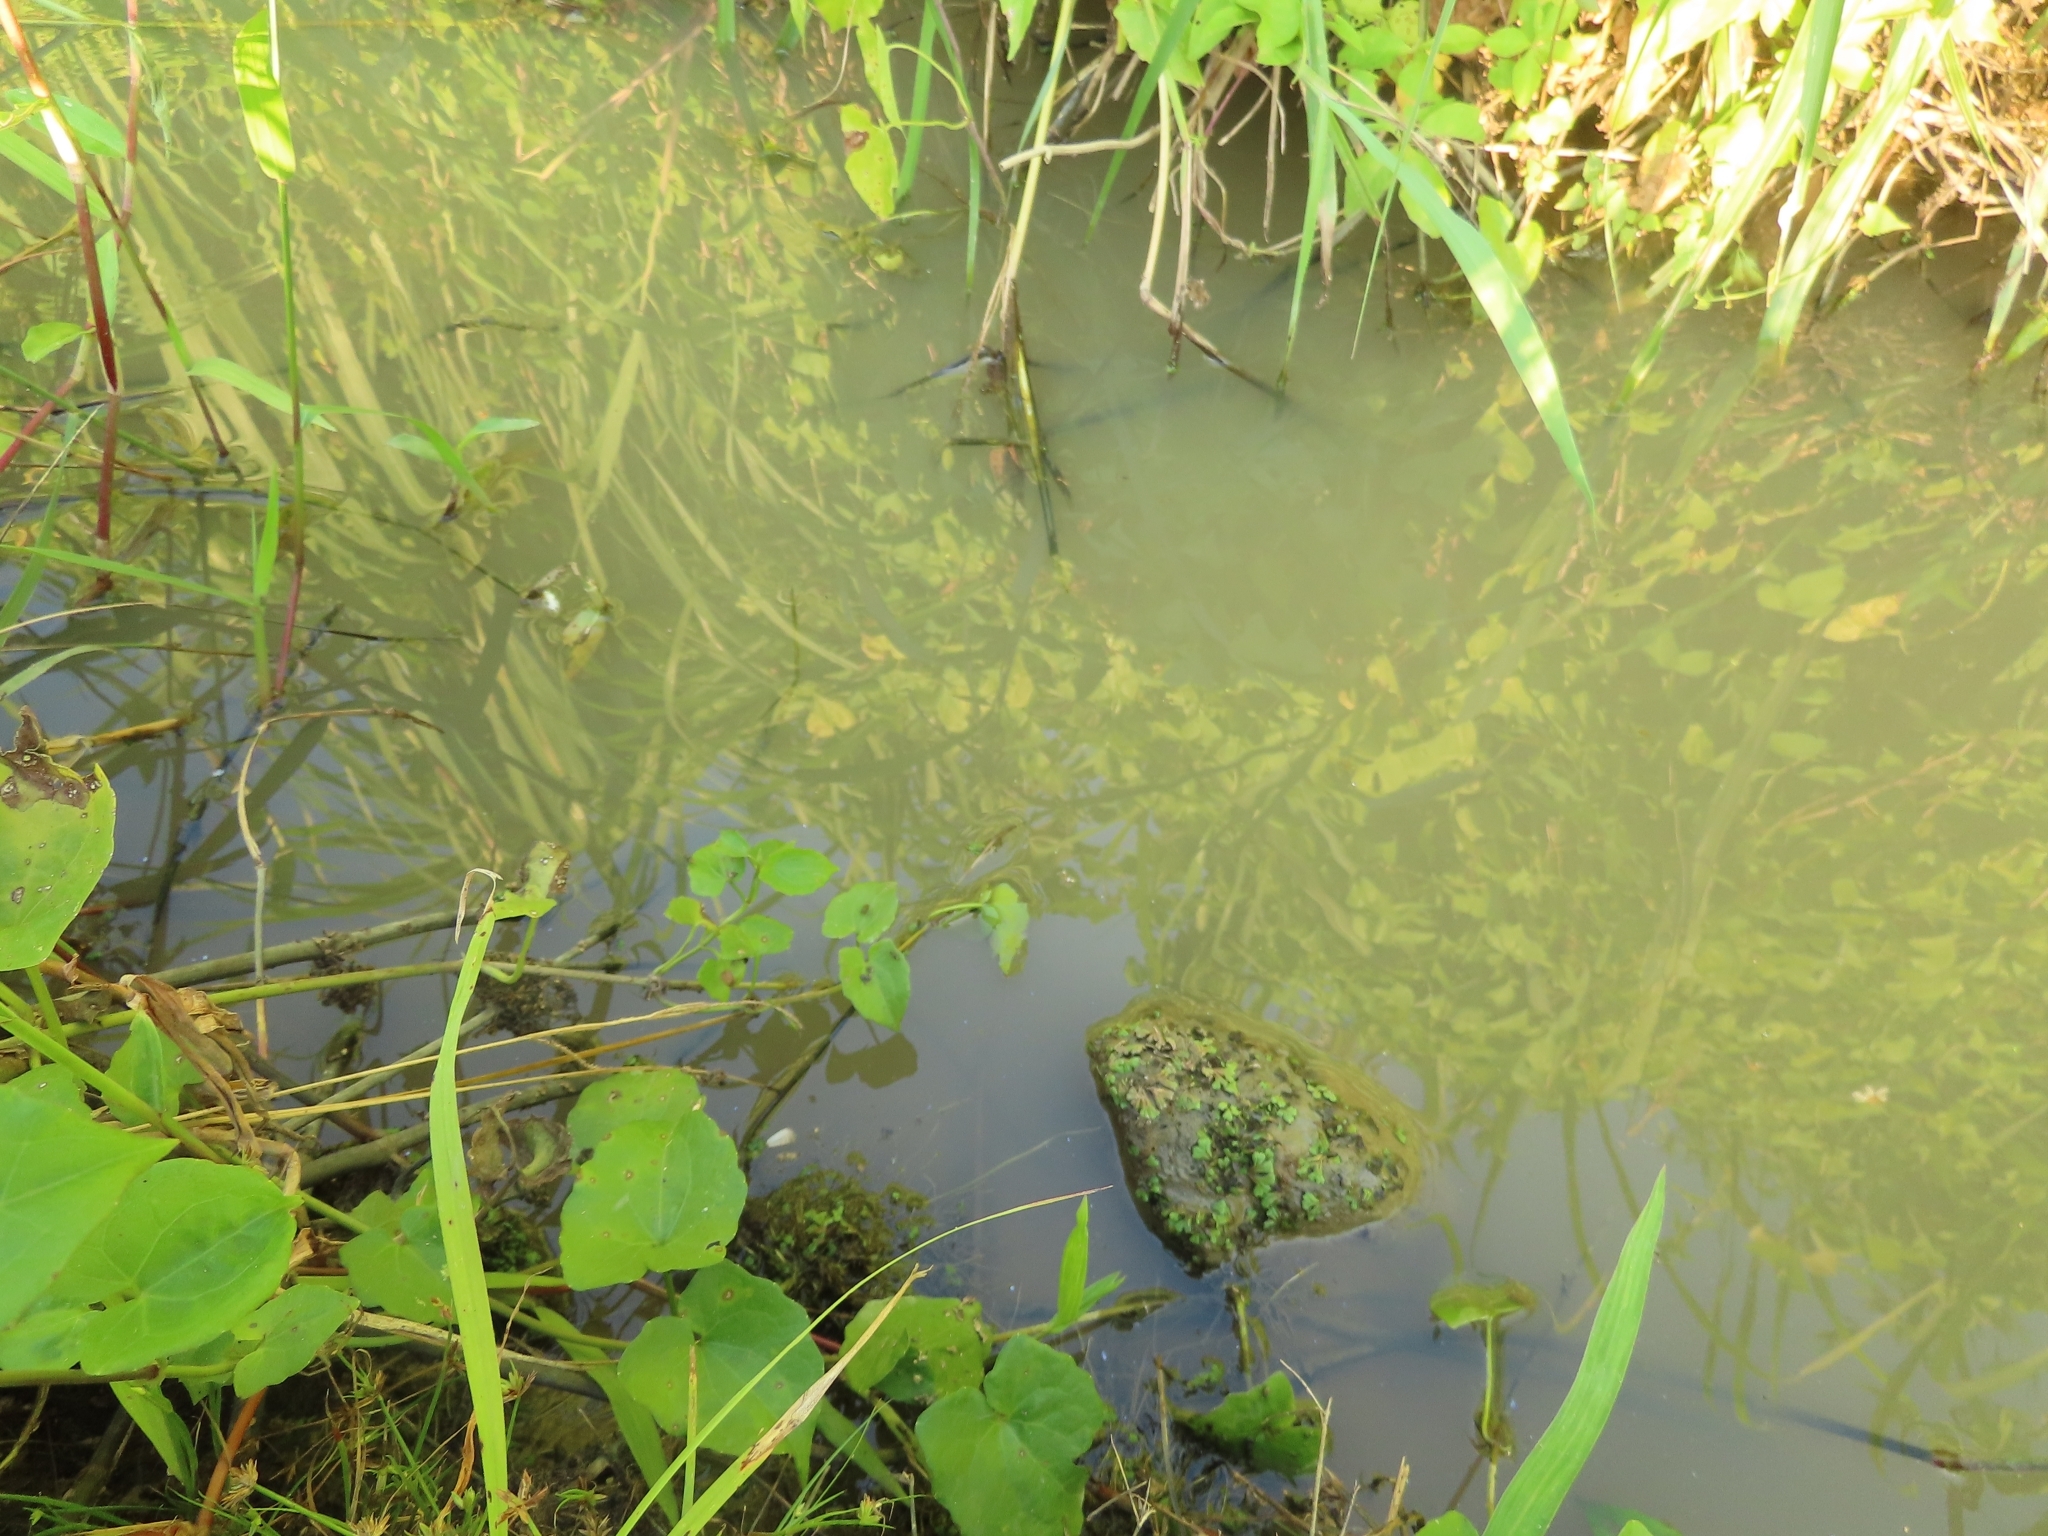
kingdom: Plantae
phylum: Marchantiophyta
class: Marchantiopsida
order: Marchantiales
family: Ricciaceae
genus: Ricciocarpos
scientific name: Ricciocarpos natans
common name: Purple-fringed liverwort
